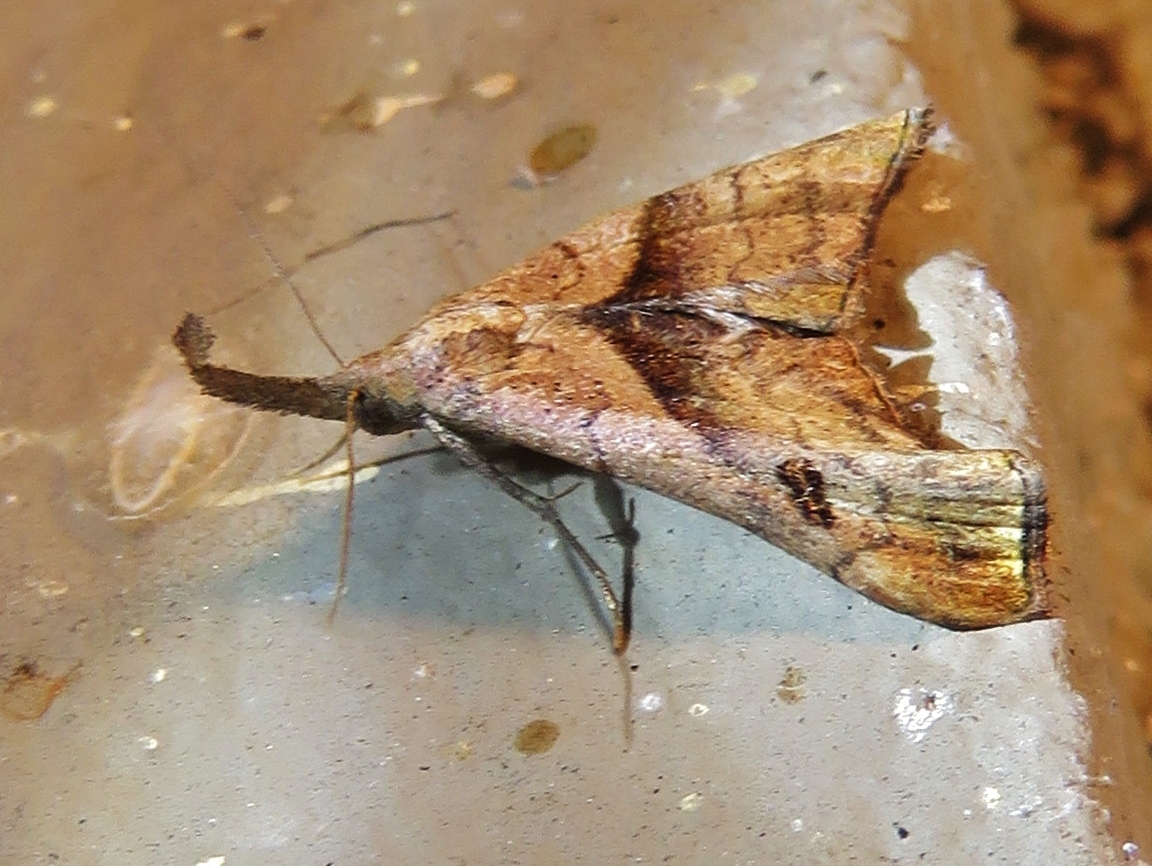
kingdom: Animalia
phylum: Arthropoda
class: Insecta
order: Lepidoptera
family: Erebidae
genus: Palthis
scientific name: Palthis angulalis
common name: Dark-spotted palthis moth
